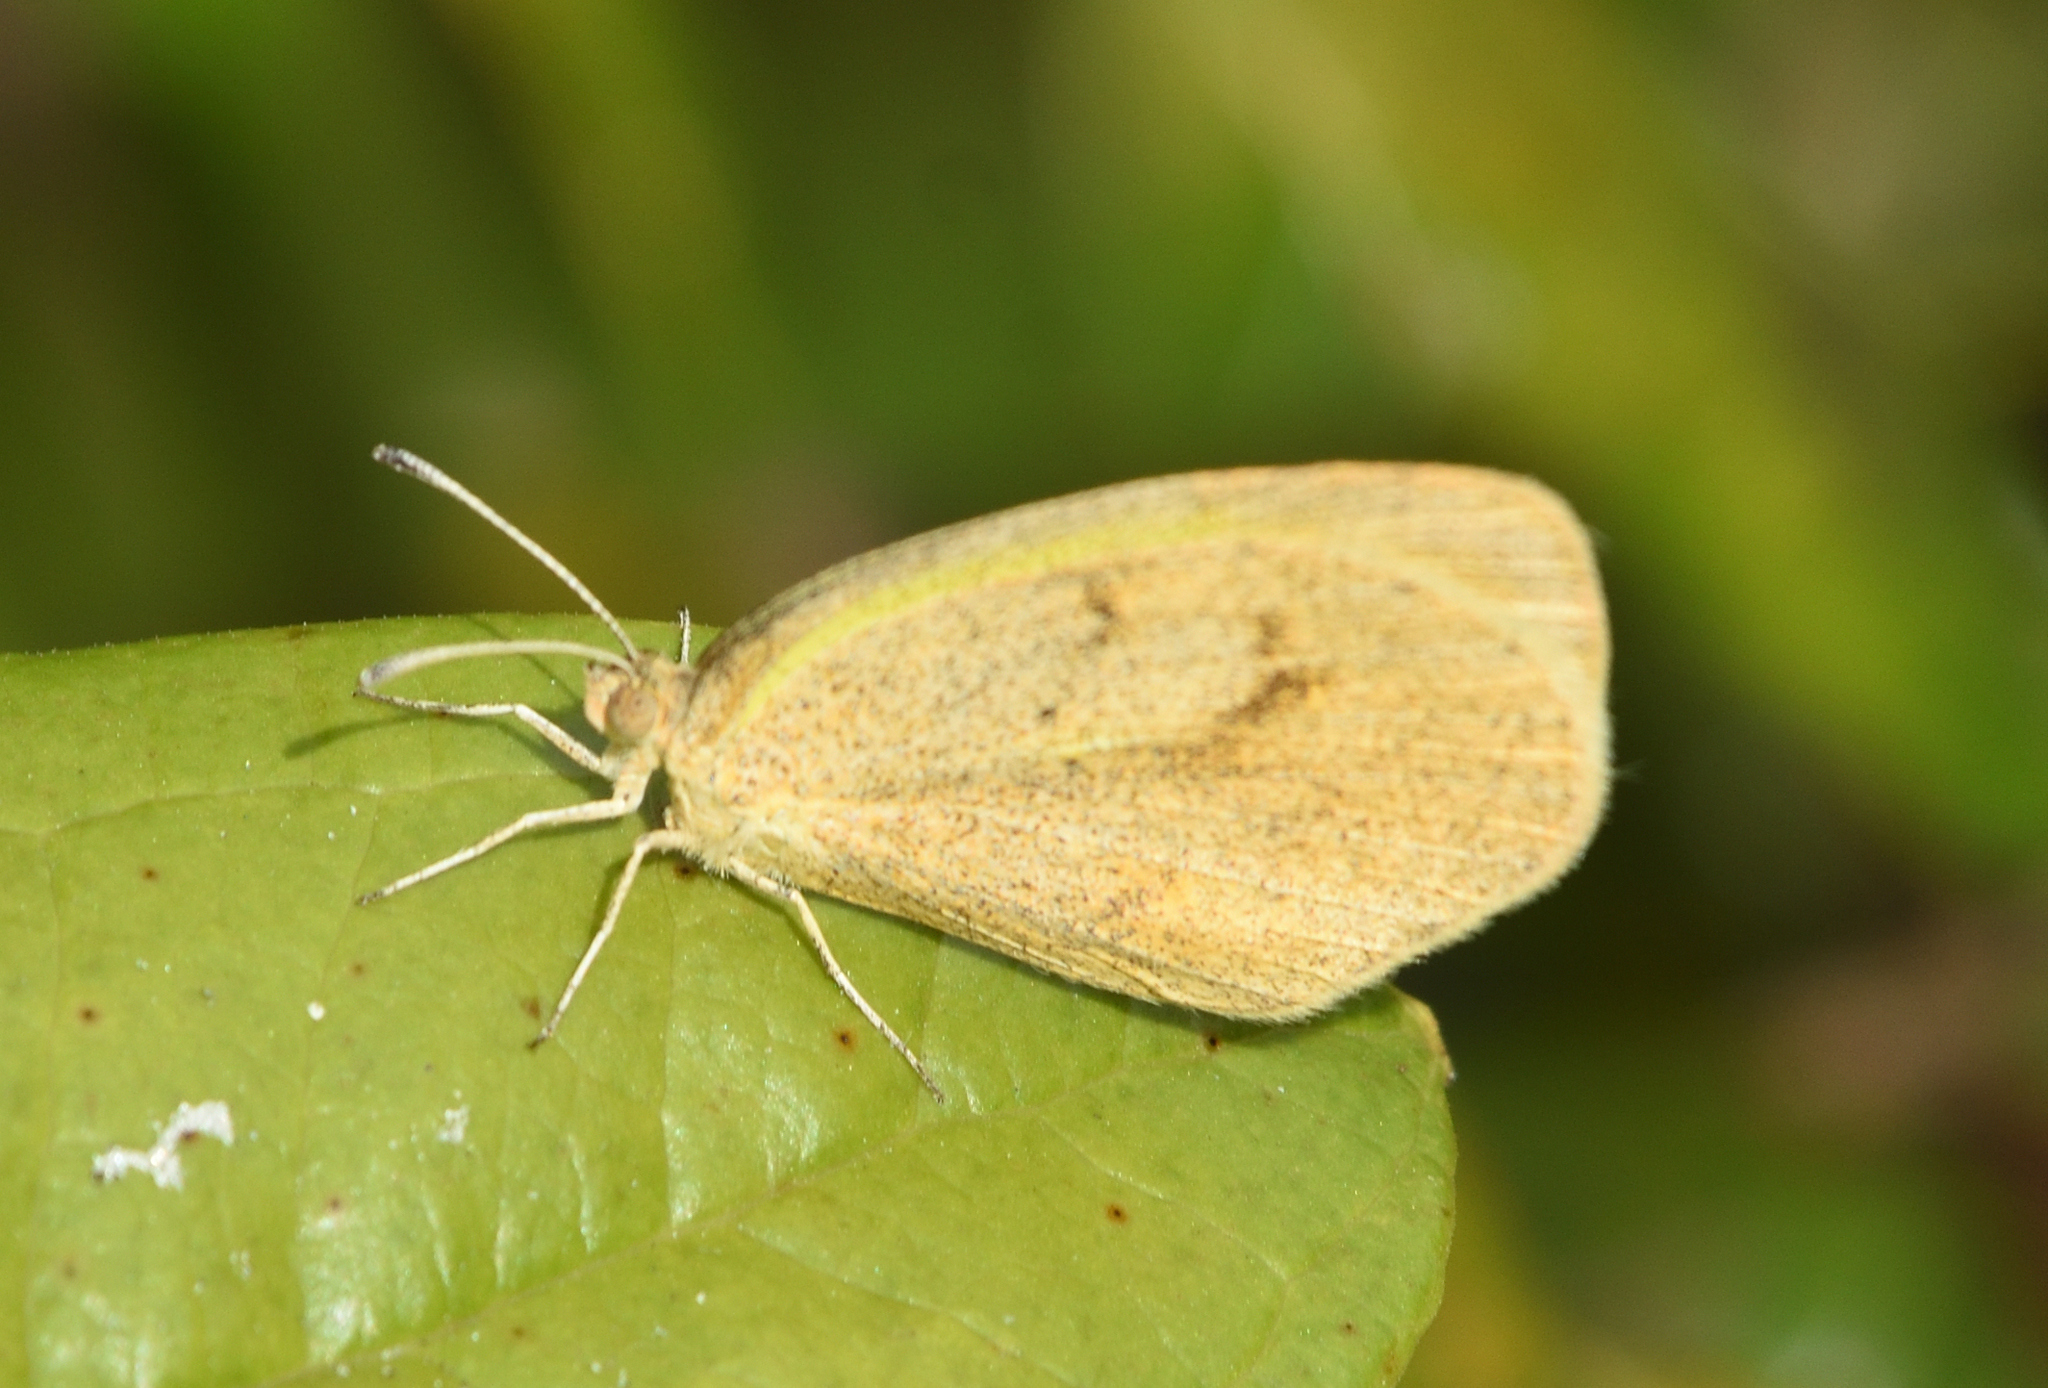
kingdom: Animalia
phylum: Arthropoda
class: Insecta
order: Lepidoptera
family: Pieridae
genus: Eurema
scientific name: Eurema daira
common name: Barred sulphur
